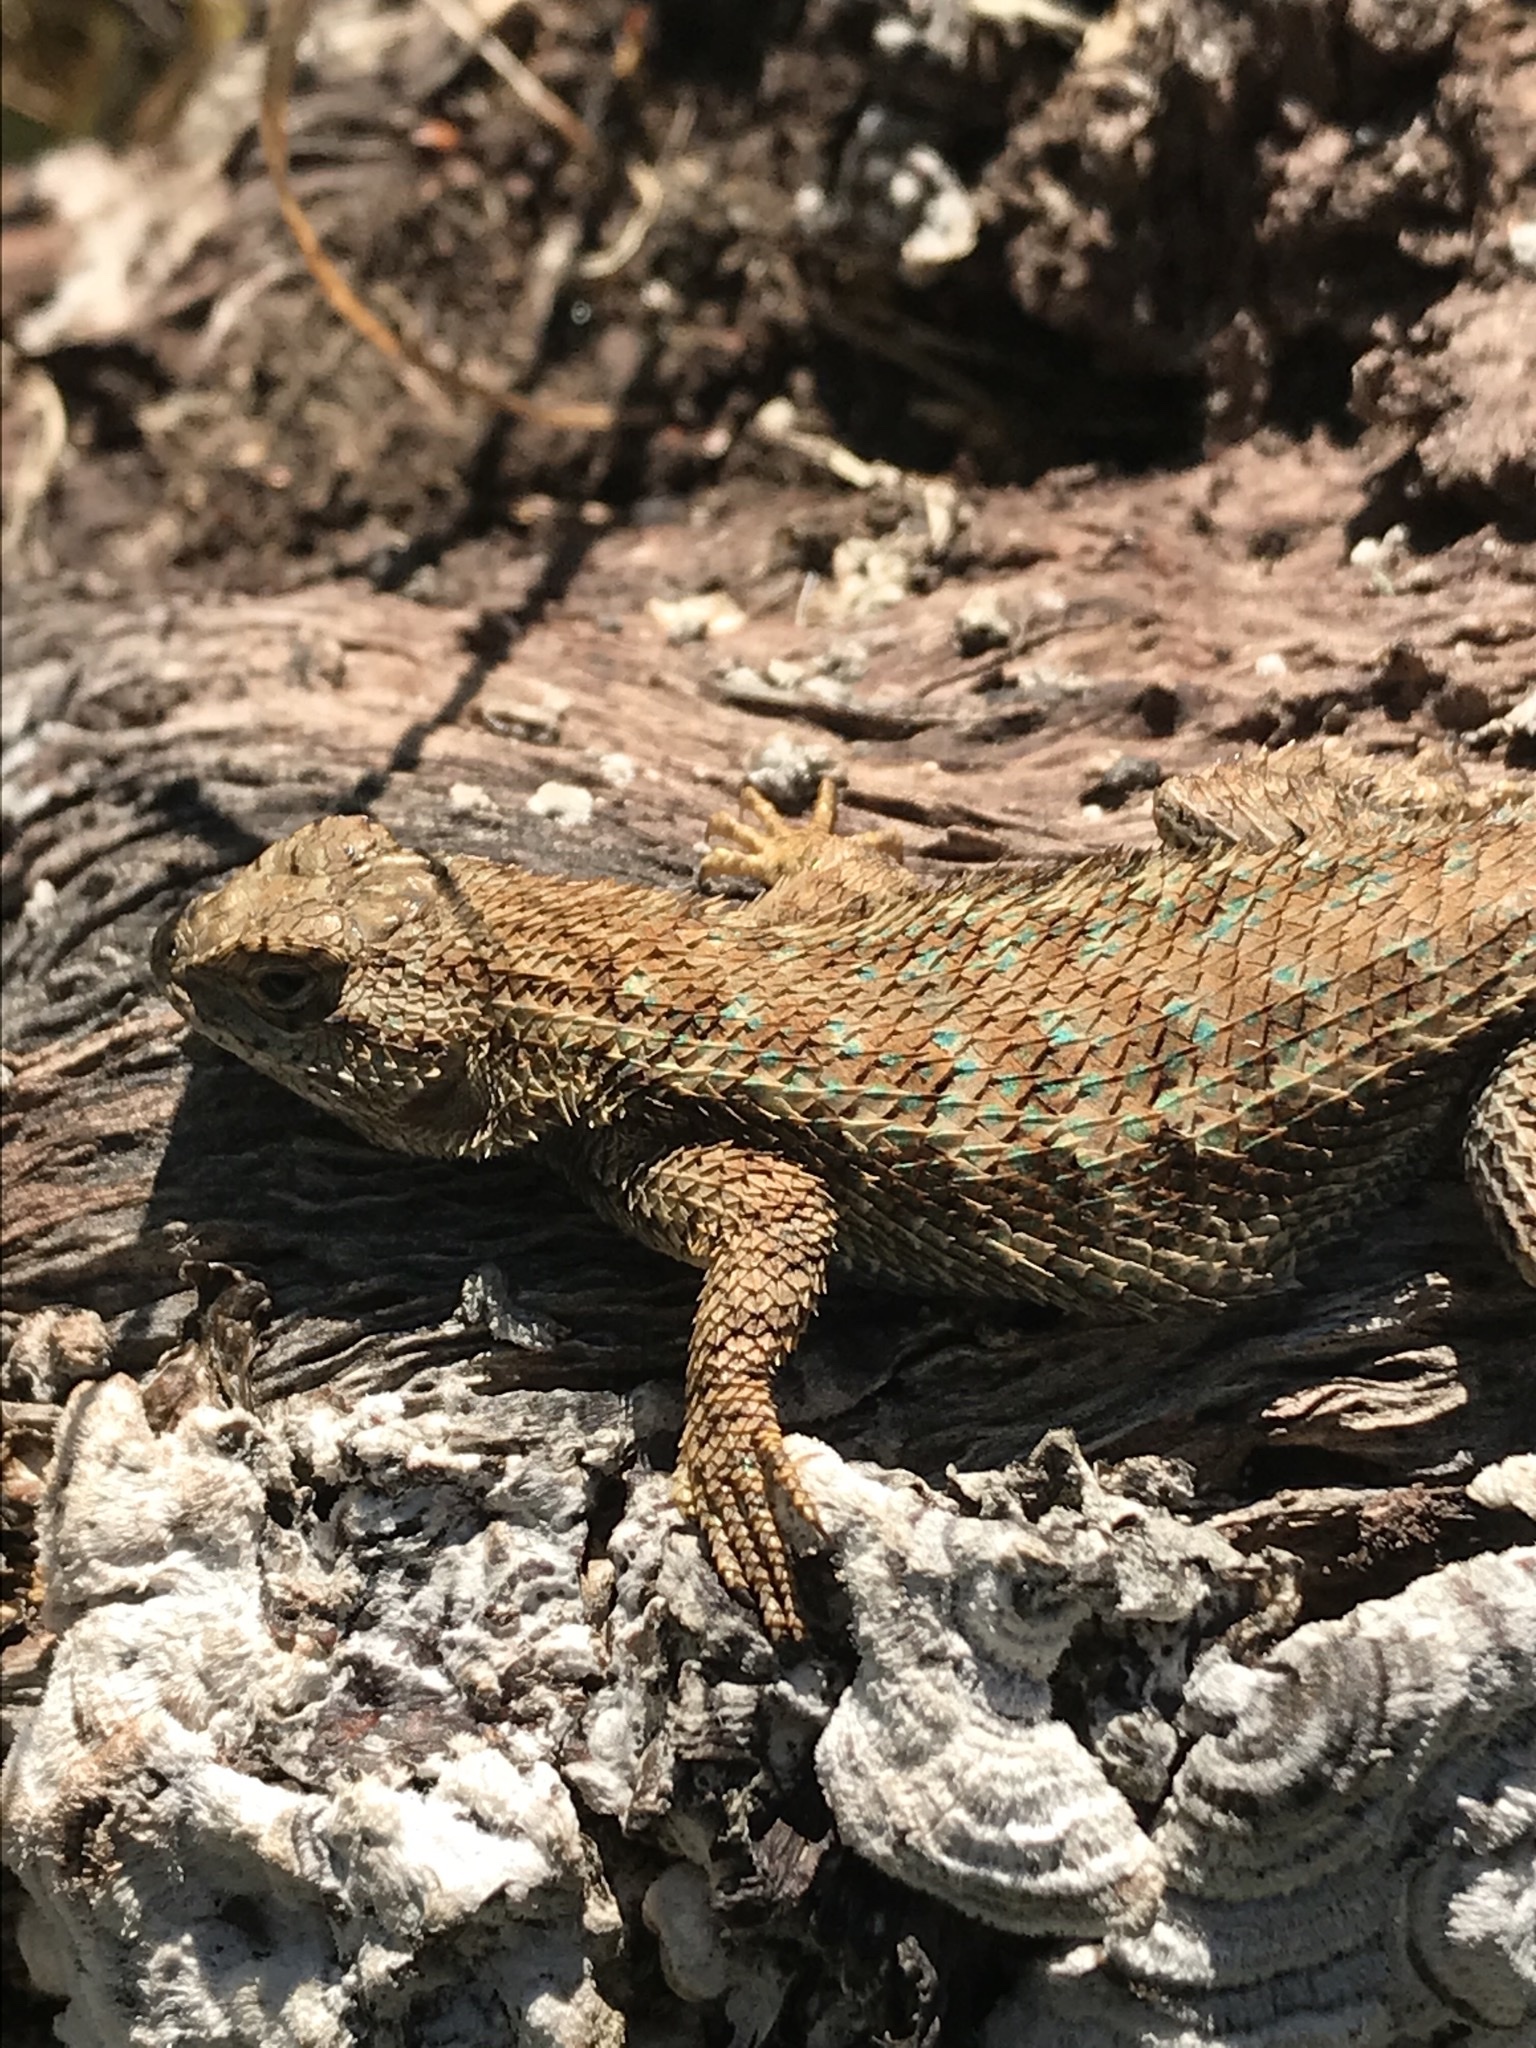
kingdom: Animalia
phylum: Chordata
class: Squamata
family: Phrynosomatidae
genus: Sceloporus
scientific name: Sceloporus occidentalis
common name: Western fence lizard
